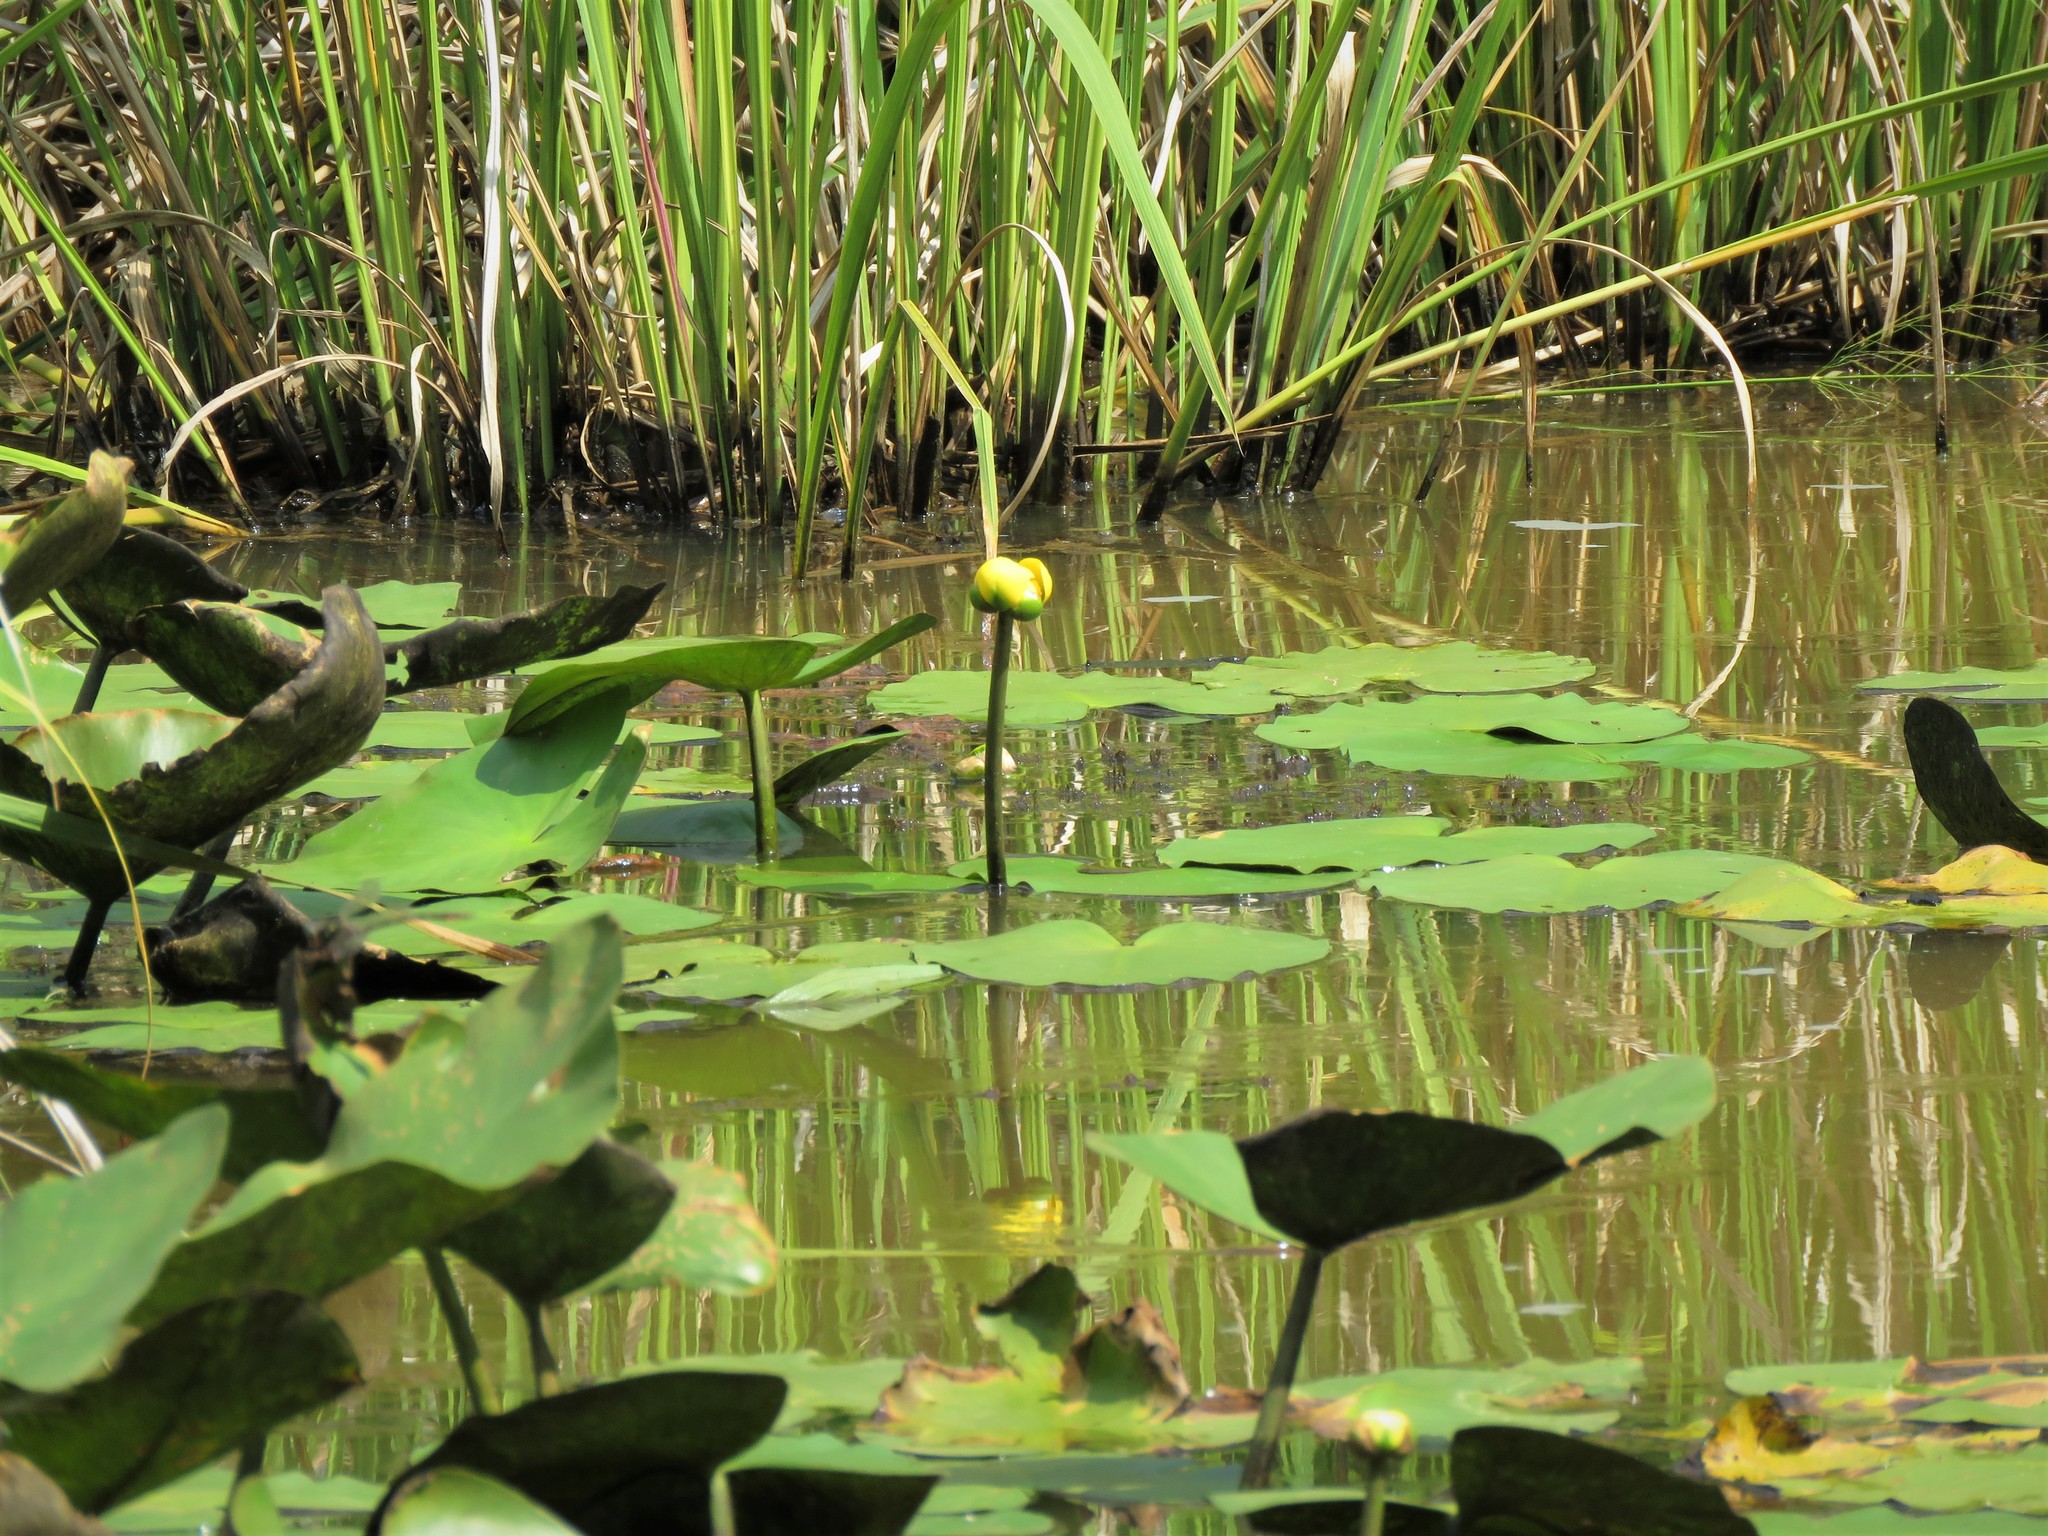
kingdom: Plantae
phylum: Tracheophyta
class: Magnoliopsida
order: Nymphaeales
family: Nymphaeaceae
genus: Nuphar
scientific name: Nuphar advena
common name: Spatter-dock
